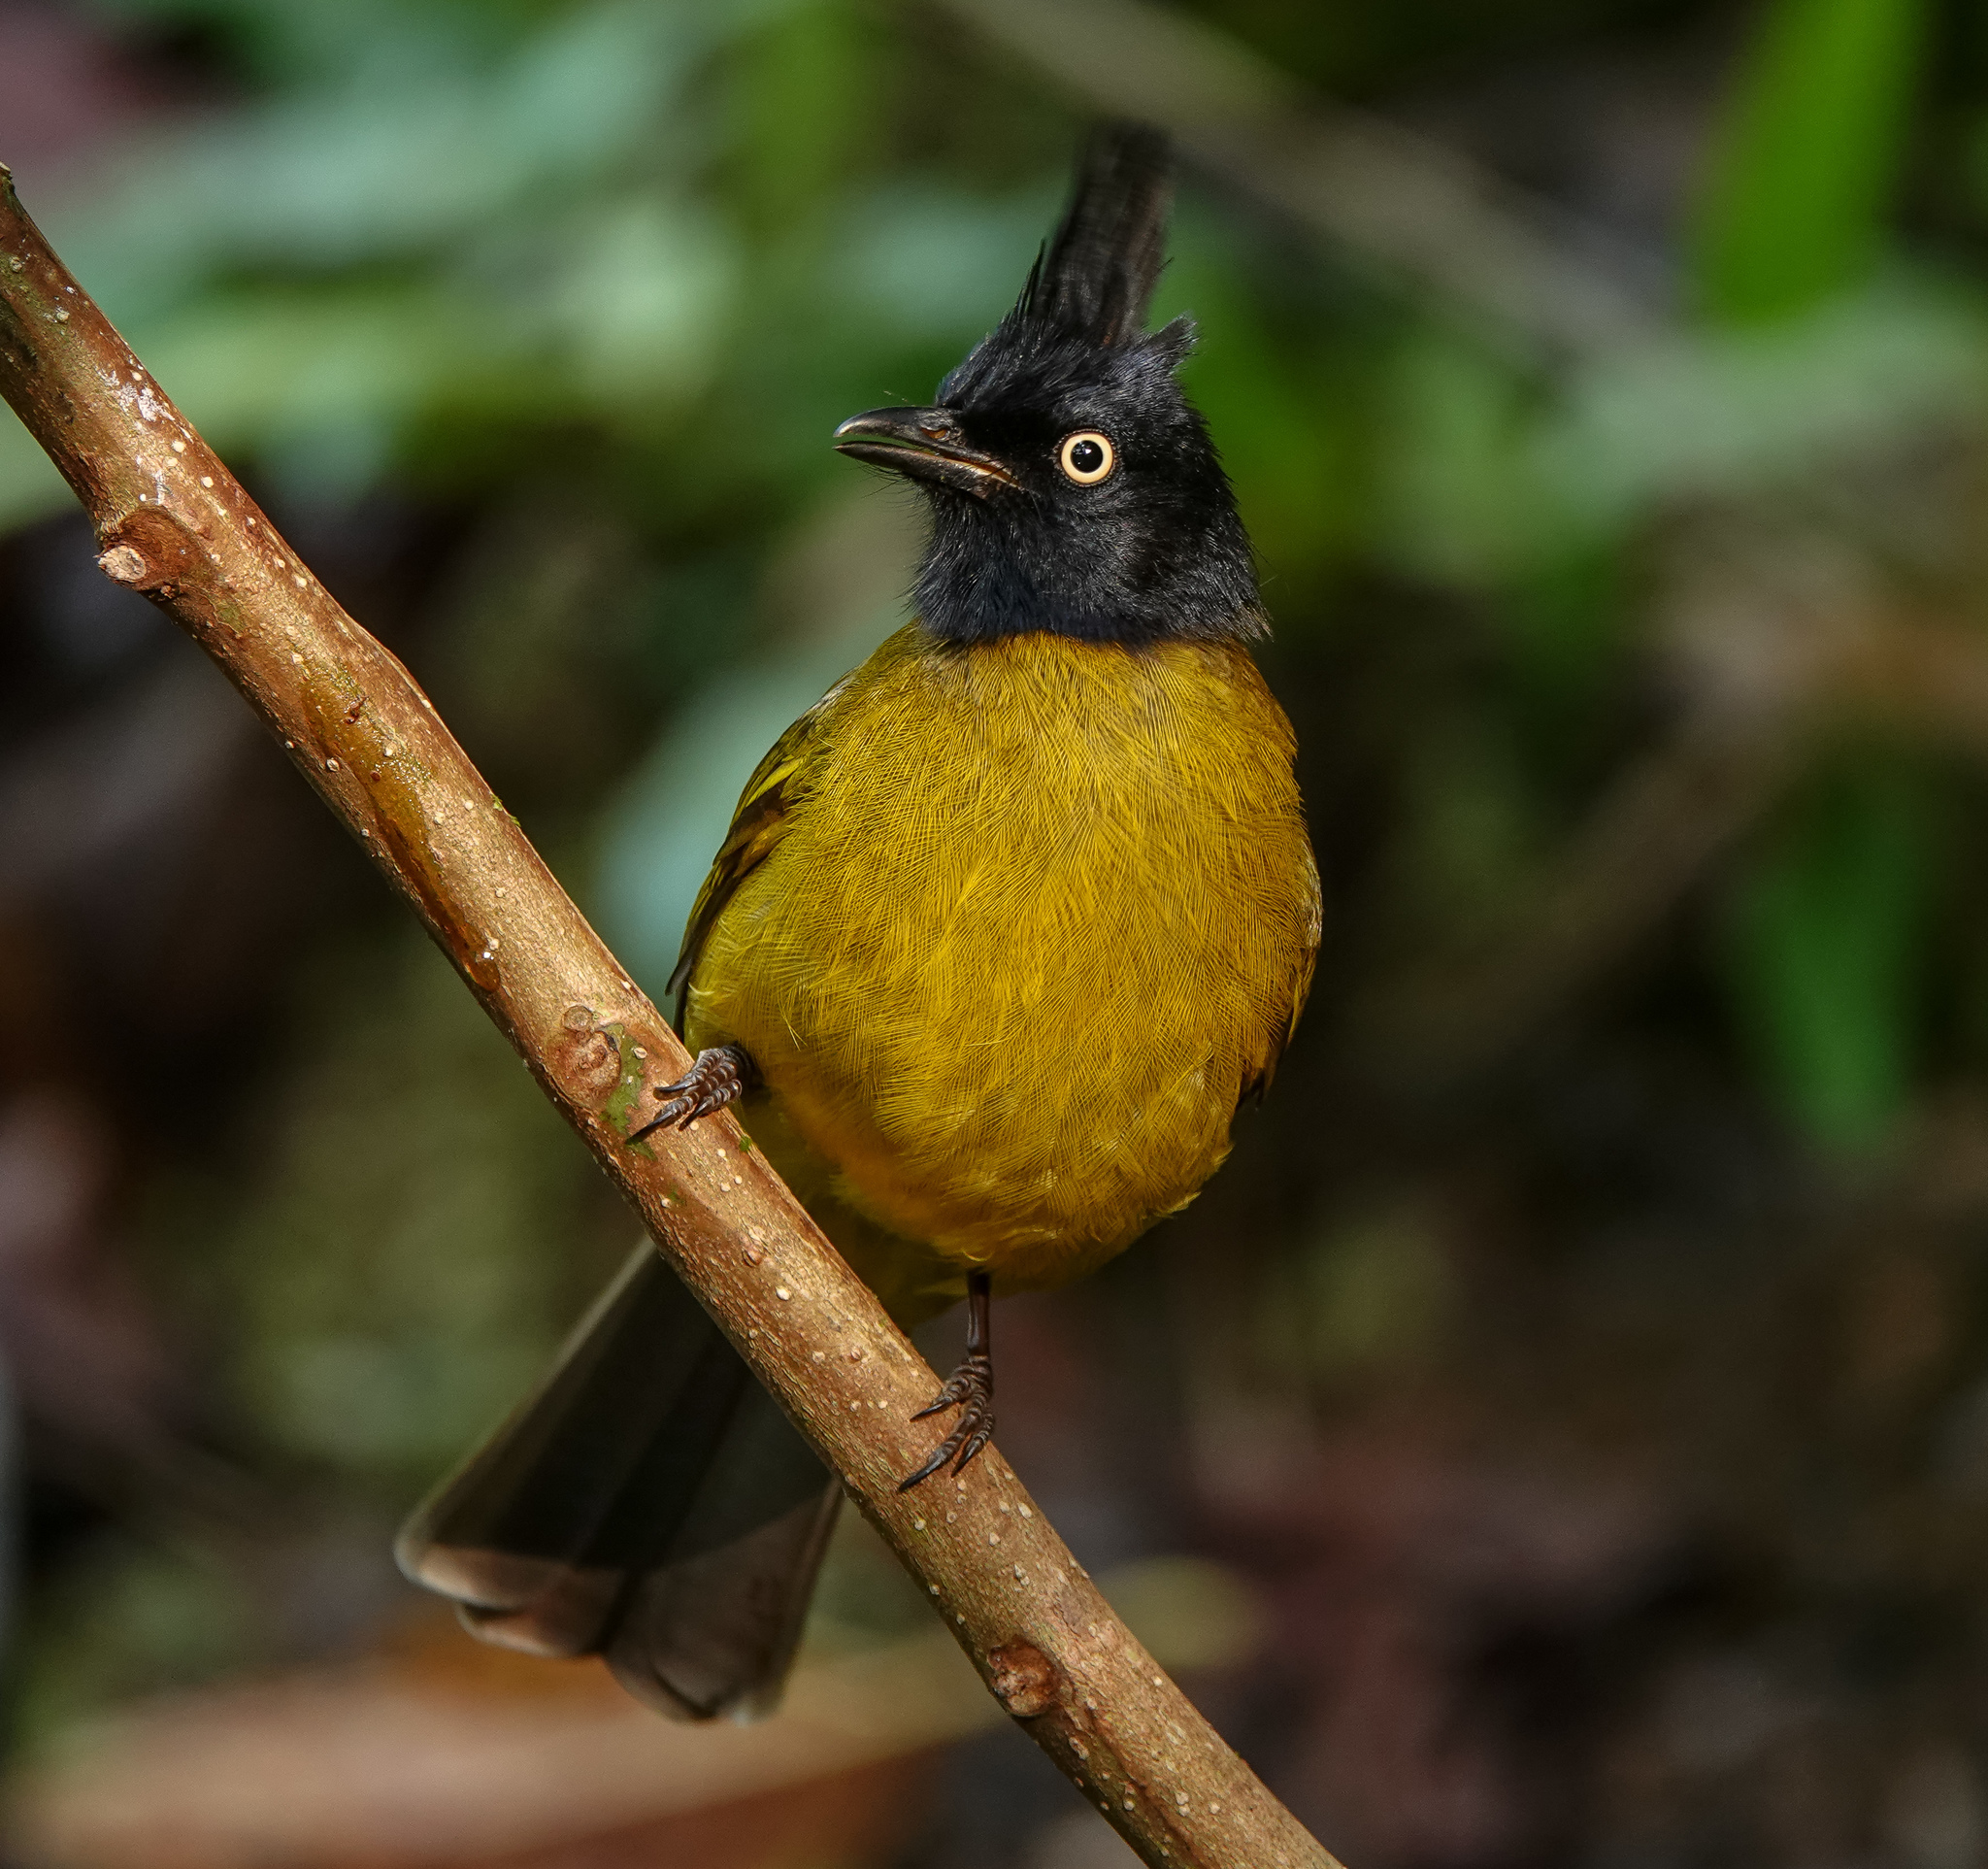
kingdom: Animalia
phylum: Chordata
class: Aves
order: Passeriformes
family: Pycnonotidae
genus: Pycnonotus
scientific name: Pycnonotus flaviventris
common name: Black-crested bulbul
